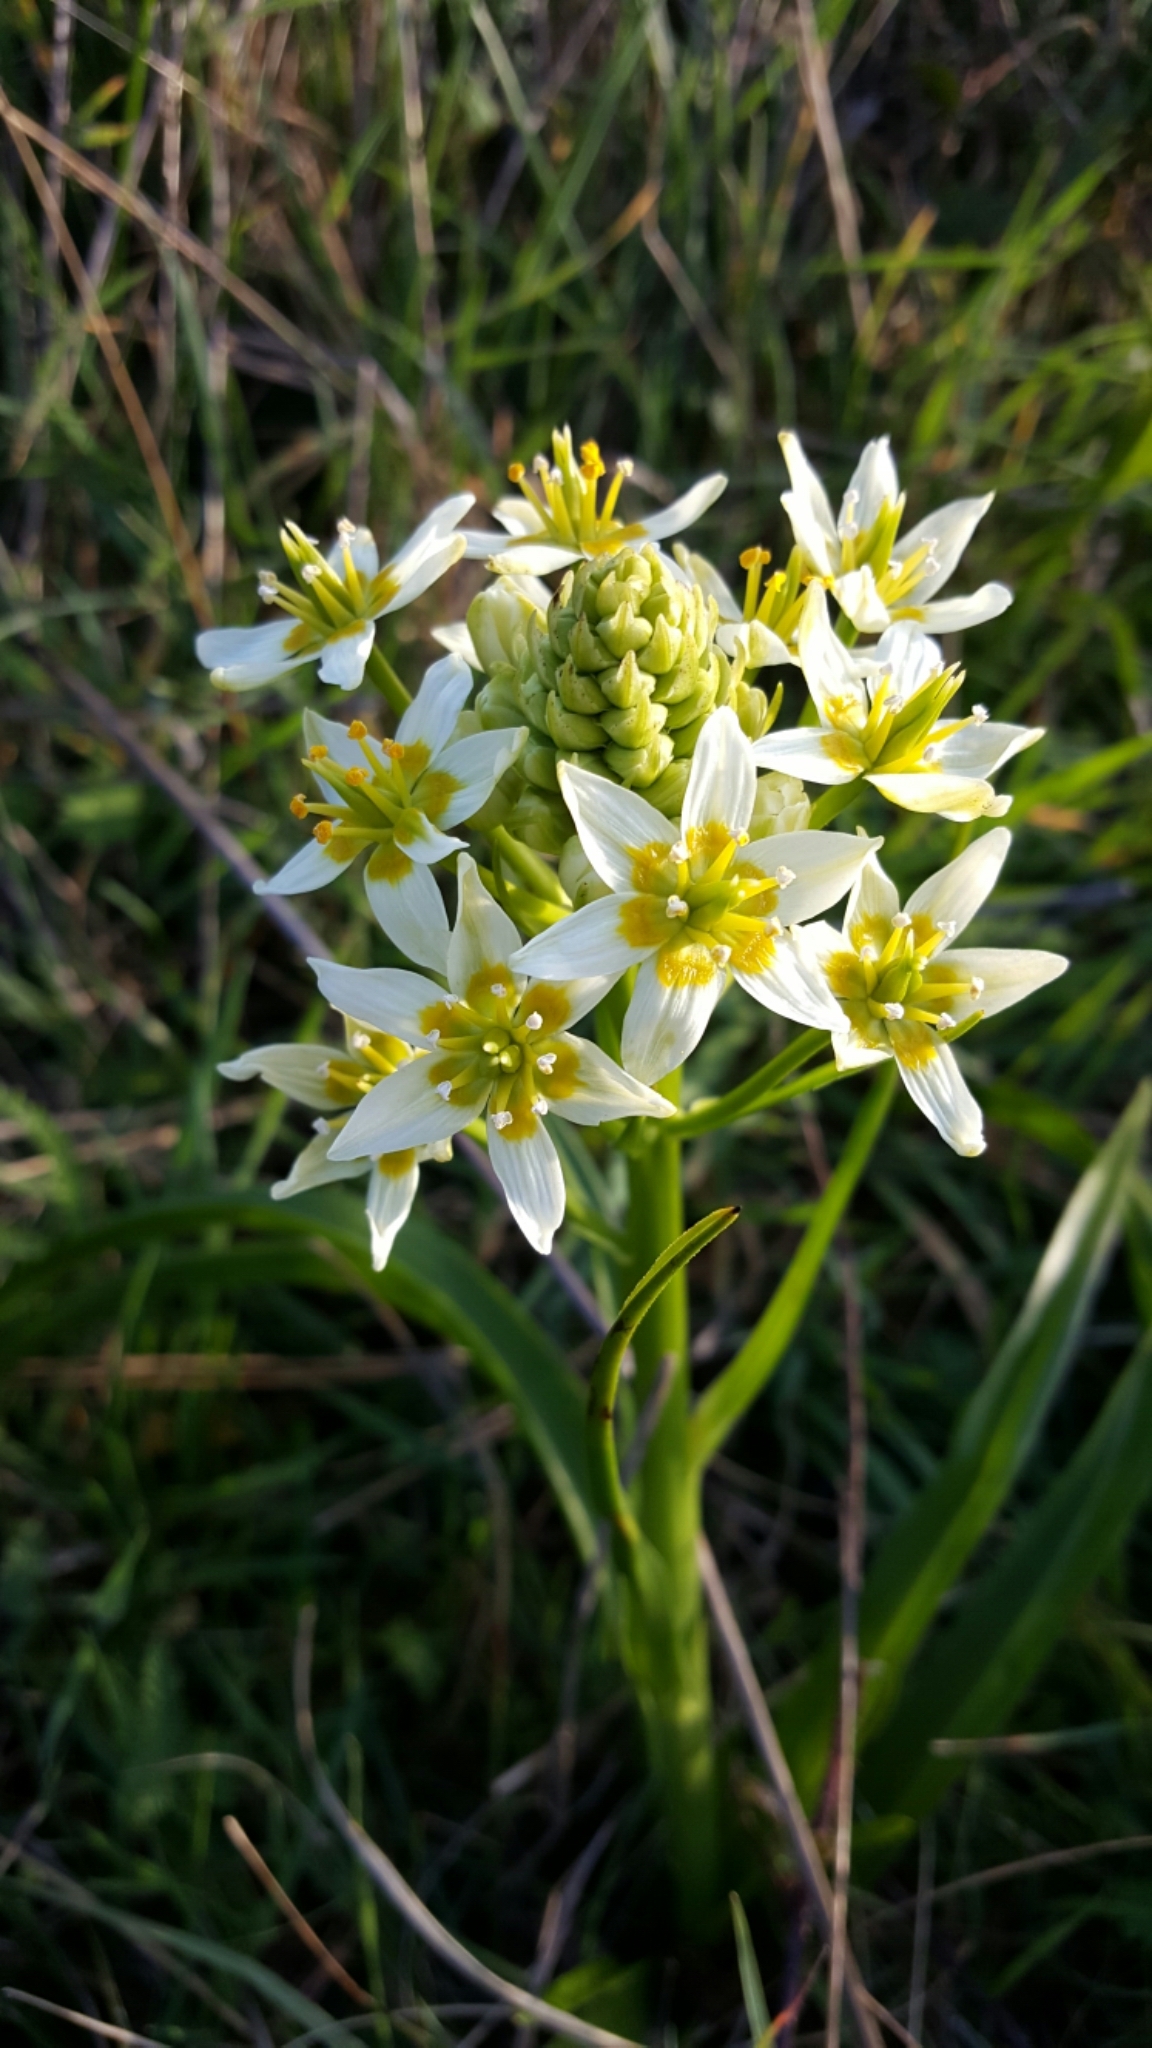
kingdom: Plantae
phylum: Tracheophyta
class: Liliopsida
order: Liliales
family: Melanthiaceae
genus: Toxicoscordion
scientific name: Toxicoscordion fremontii
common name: Fremont's death camas
